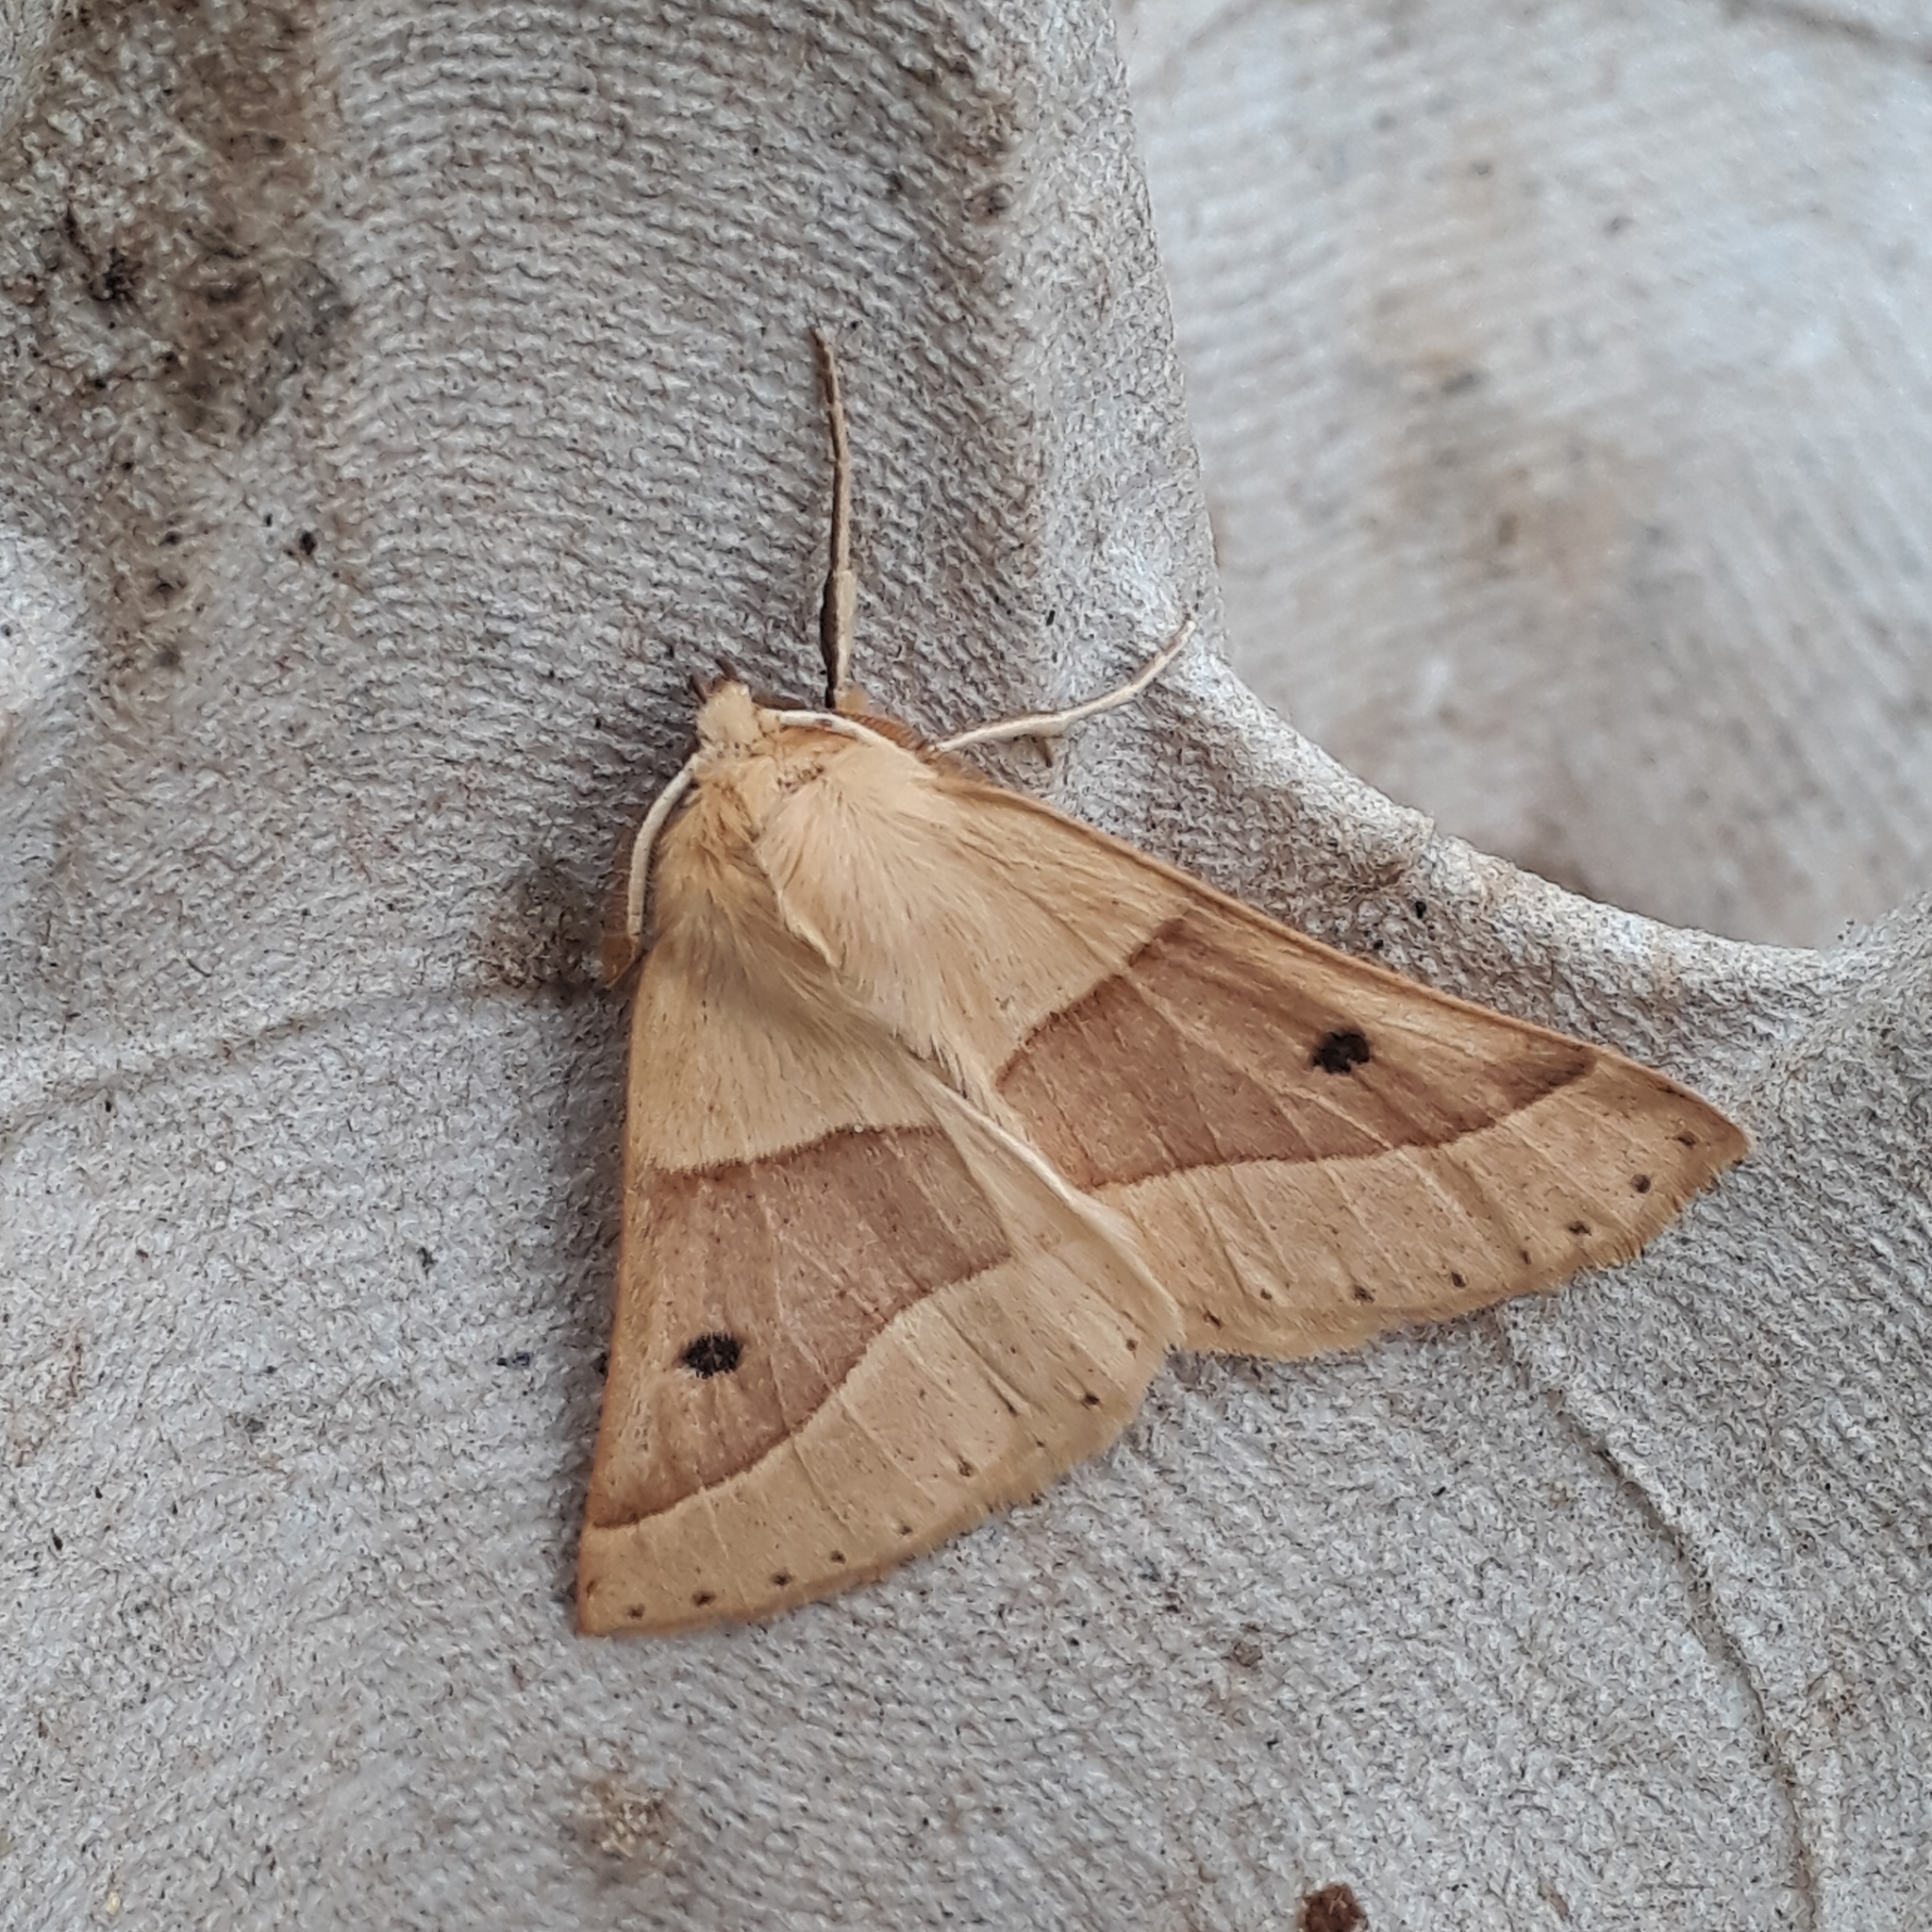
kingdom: Animalia
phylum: Arthropoda
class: Insecta
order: Lepidoptera
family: Geometridae
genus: Crocallis
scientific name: Crocallis elinguaria
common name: Scalloped oak
